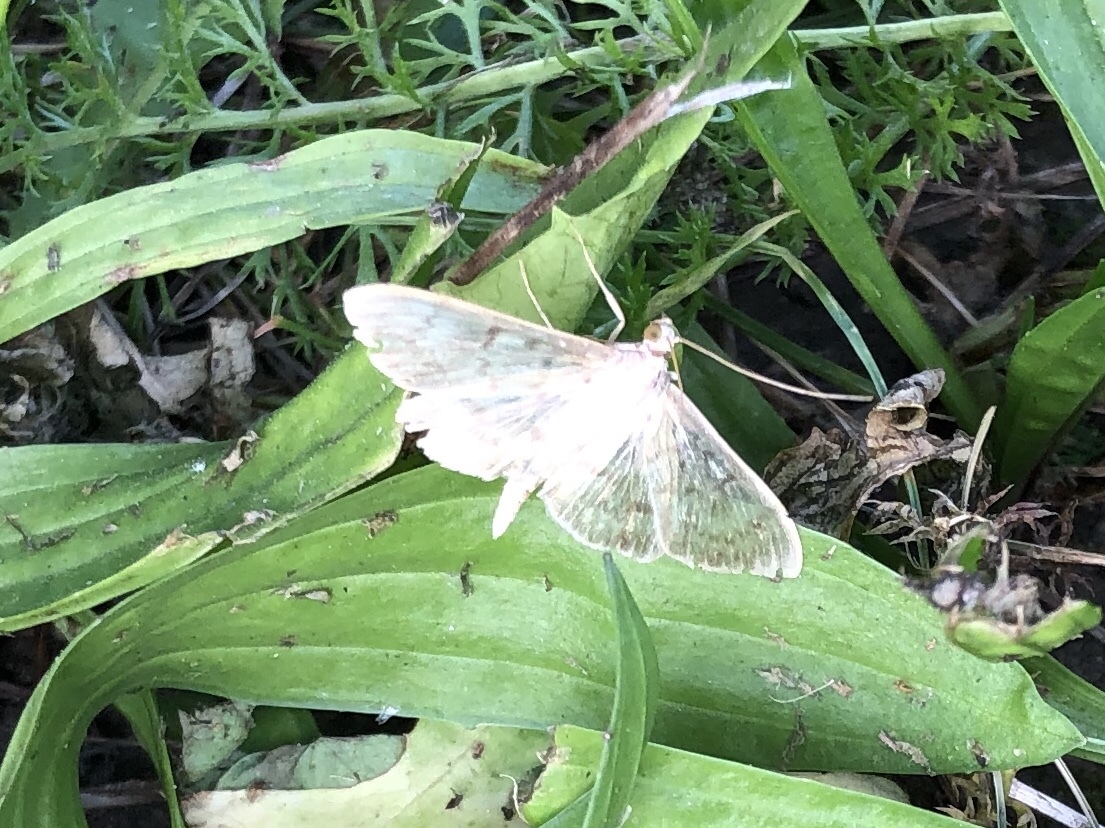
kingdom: Animalia
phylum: Arthropoda
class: Insecta
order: Lepidoptera
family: Crambidae
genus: Patania
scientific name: Patania ruralis
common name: Mother of pearl
